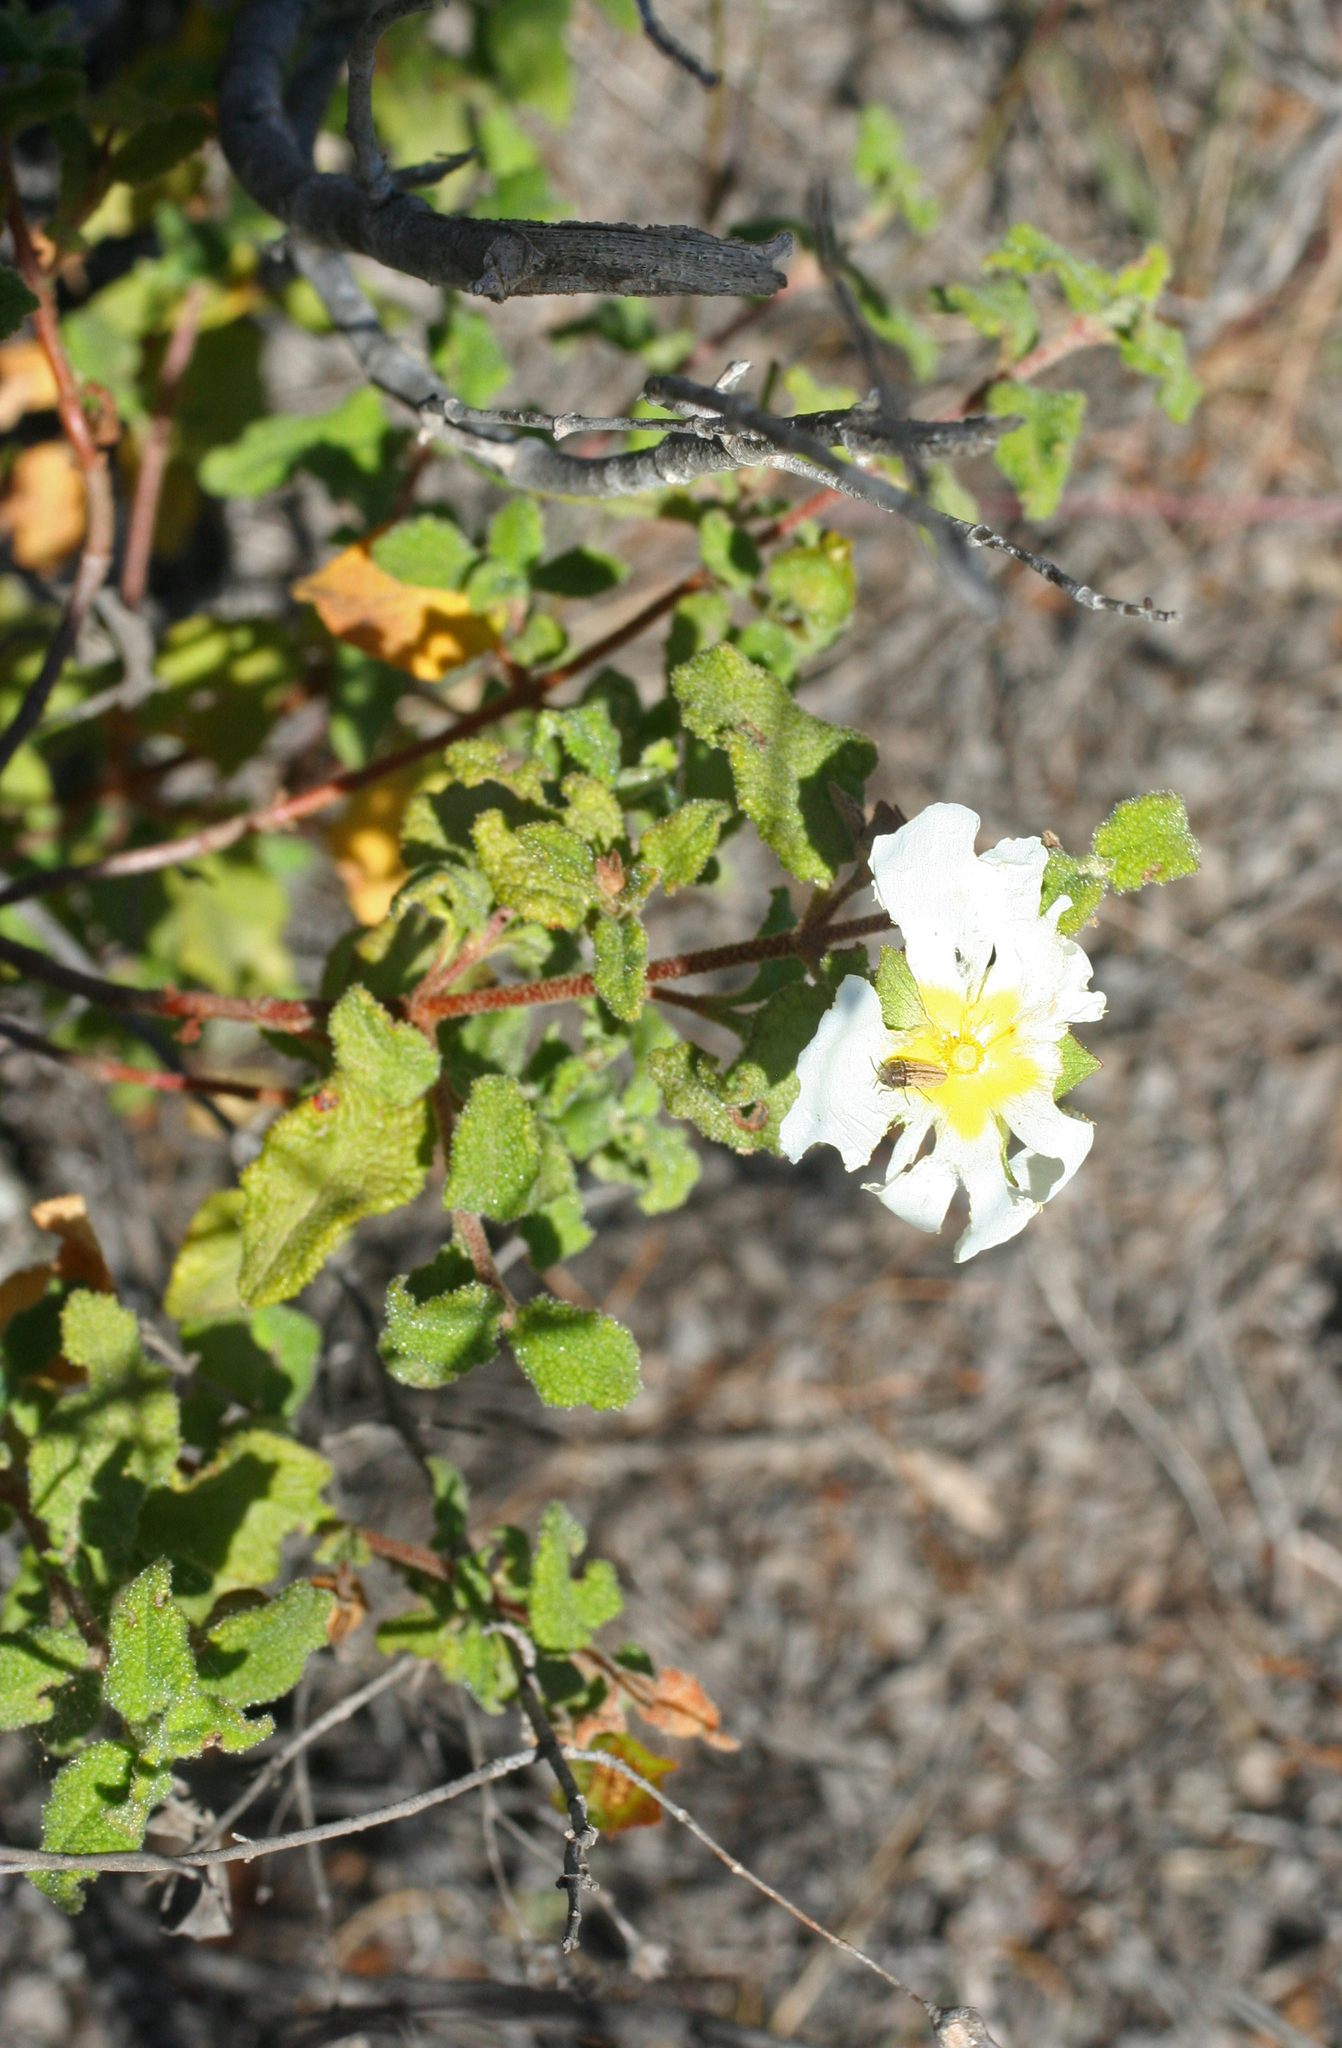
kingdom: Plantae
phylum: Tracheophyta
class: Magnoliopsida
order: Malvales
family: Cistaceae
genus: Cistus
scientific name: Cistus salviifolius
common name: Salvia cistus
